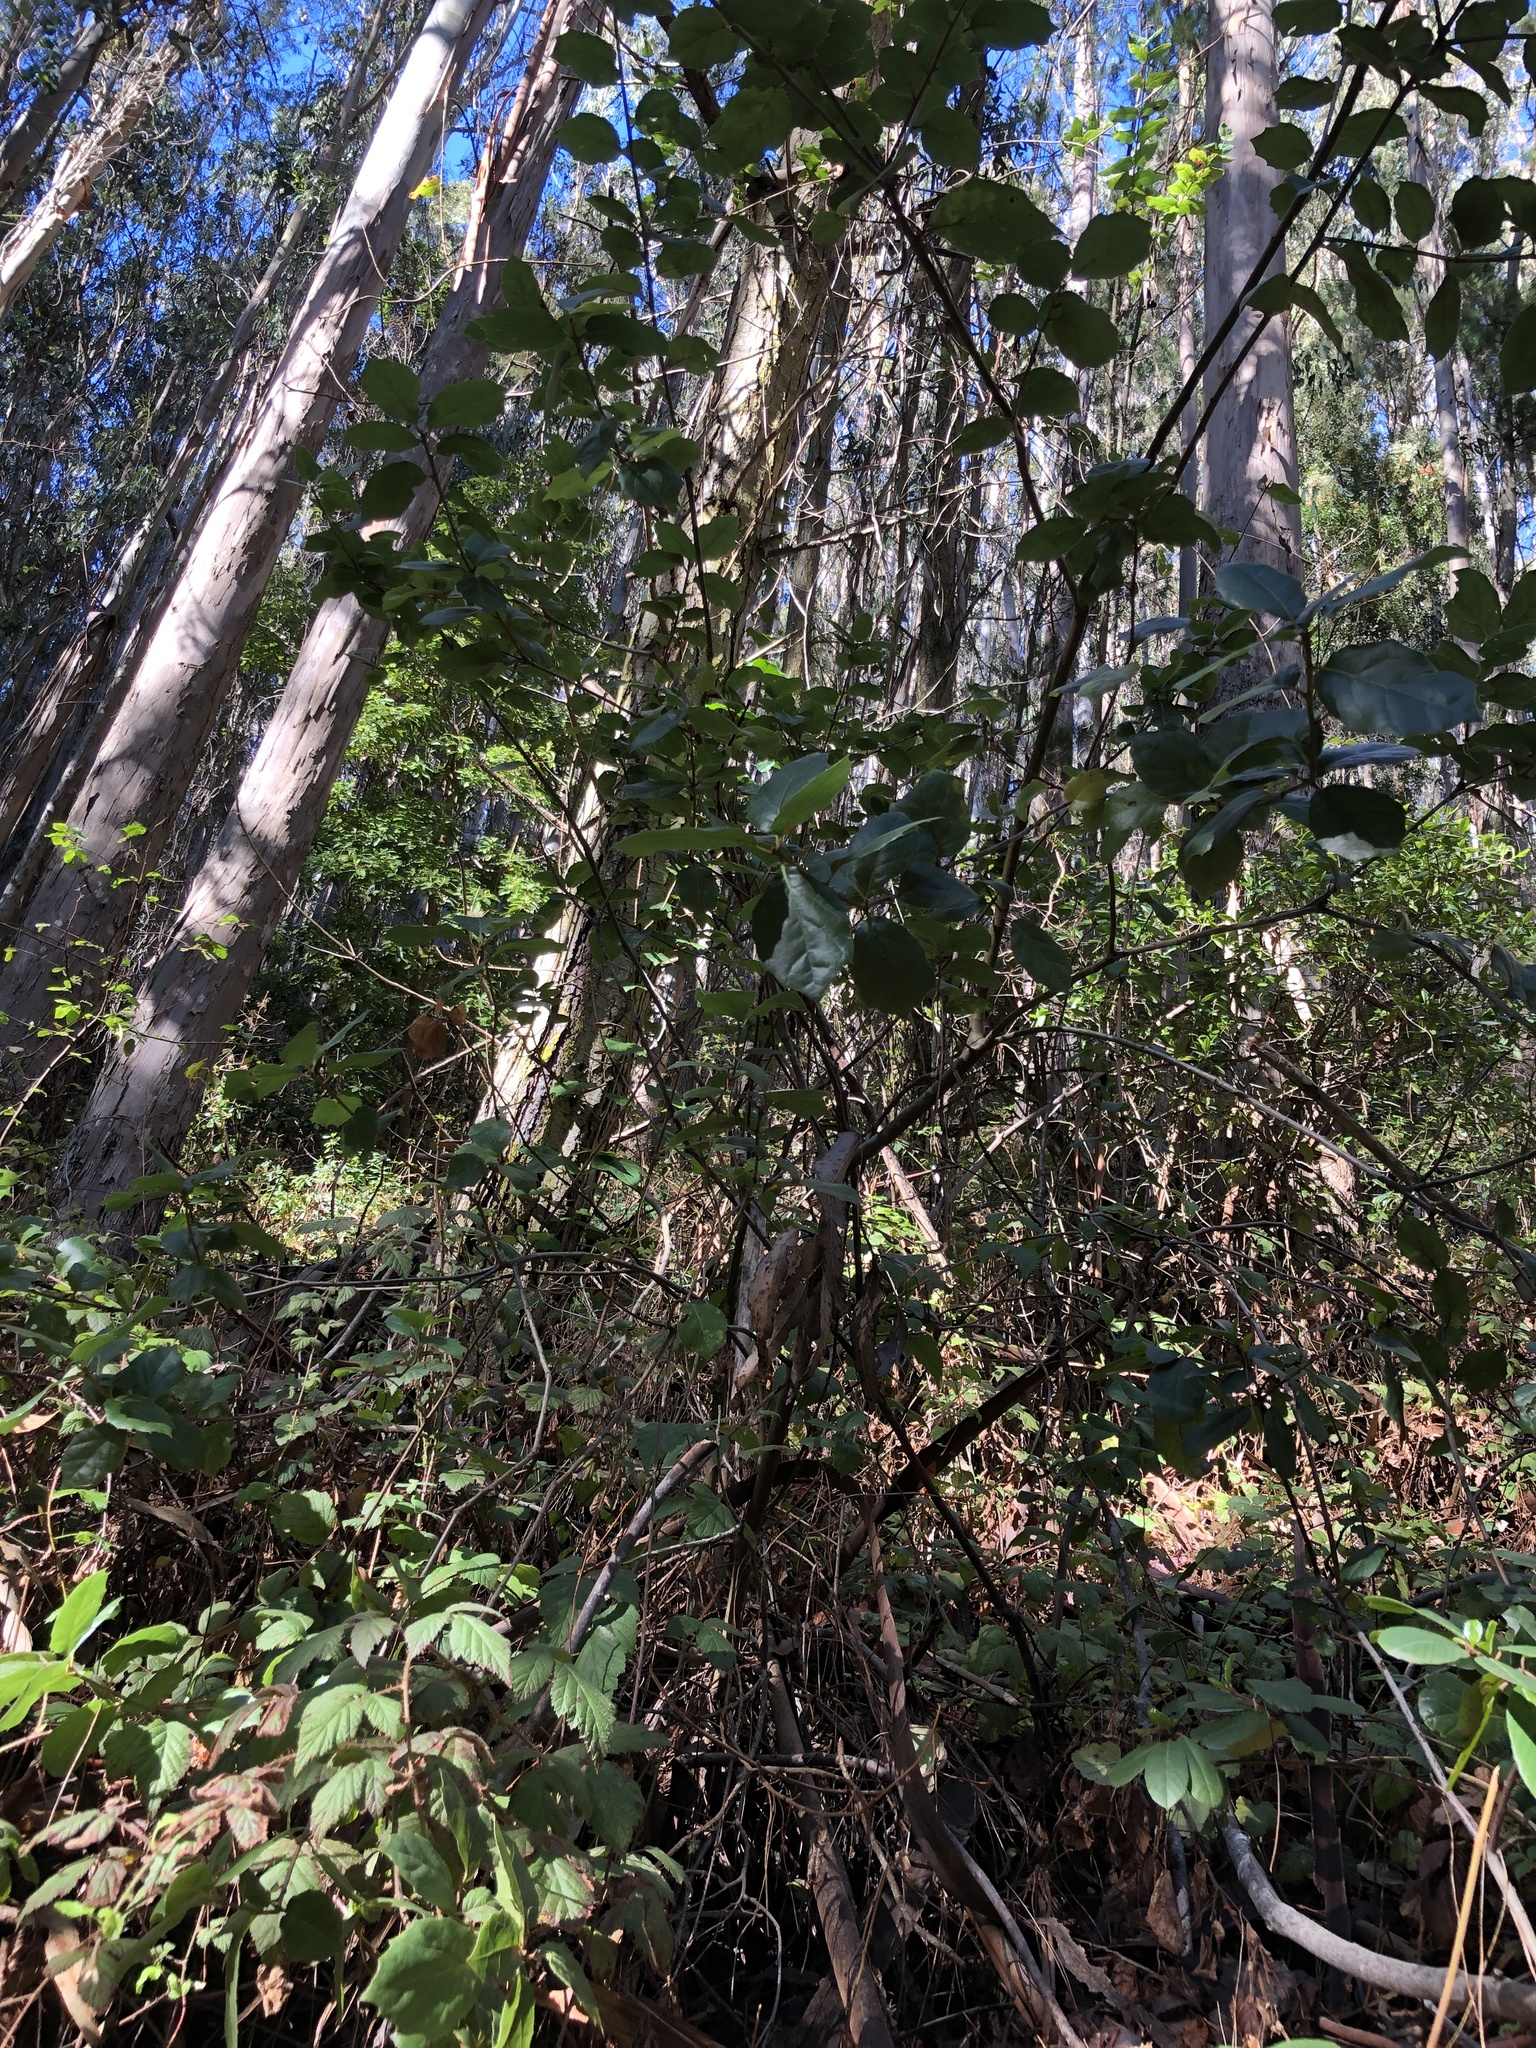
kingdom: Plantae
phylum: Tracheophyta
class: Magnoliopsida
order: Fagales
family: Fagaceae
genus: Quercus
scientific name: Quercus agrifolia
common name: California live oak
